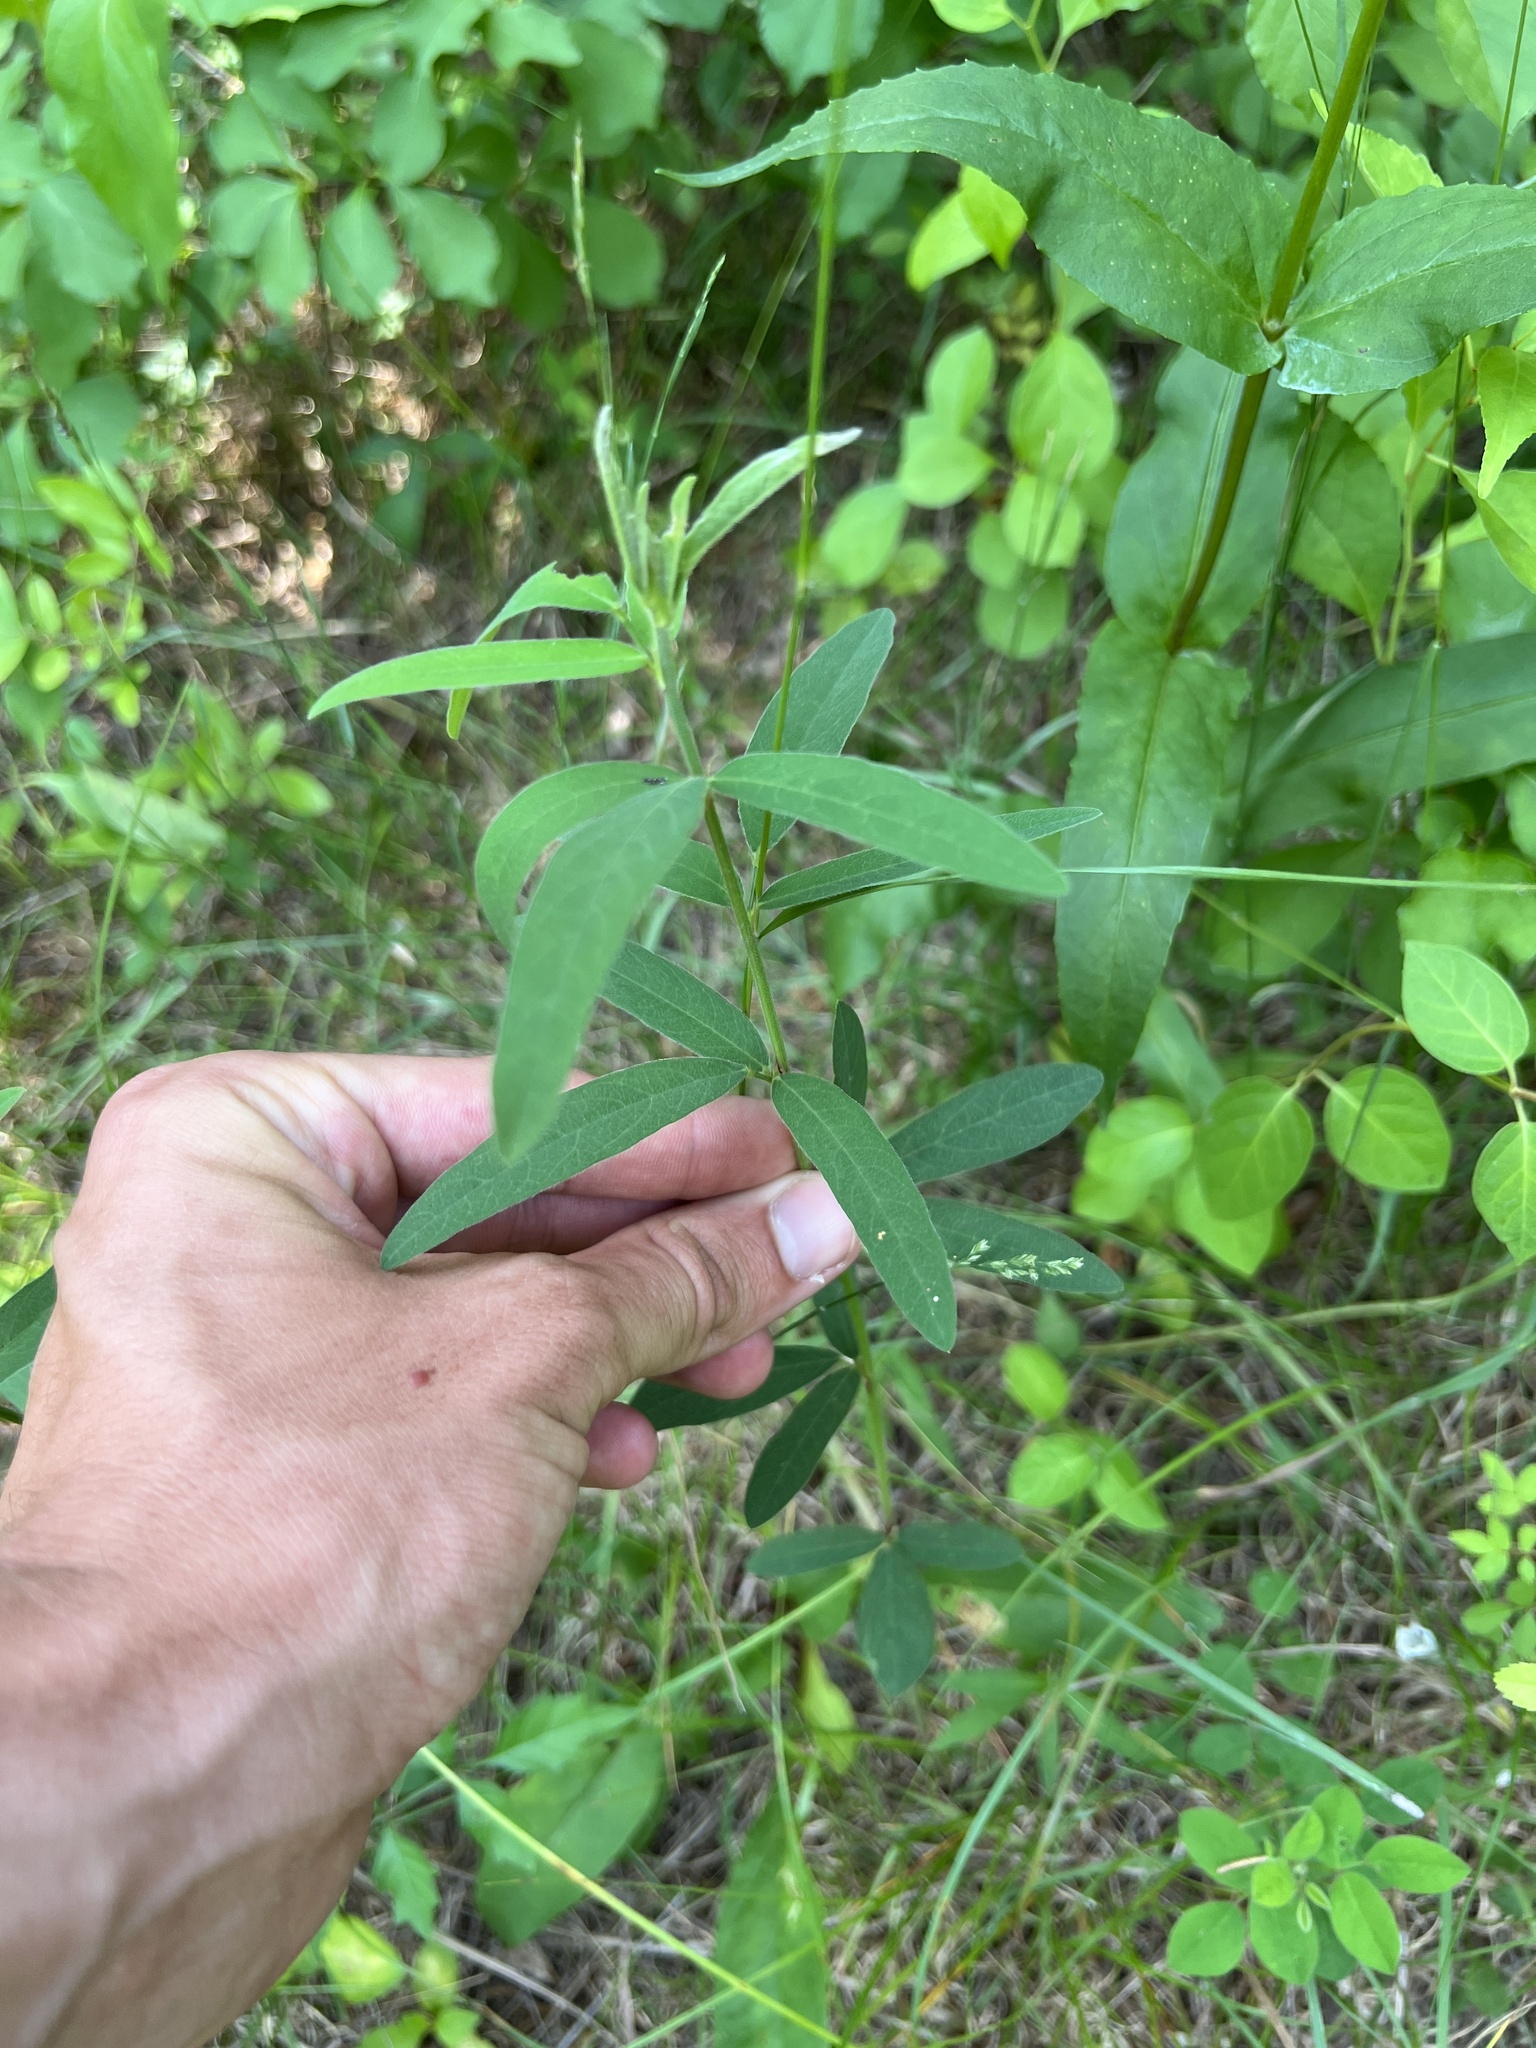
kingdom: Plantae
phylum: Tracheophyta
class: Magnoliopsida
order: Fabales
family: Fabaceae
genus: Desmodium
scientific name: Desmodium sessilifolium
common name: Sessile tick-clover
